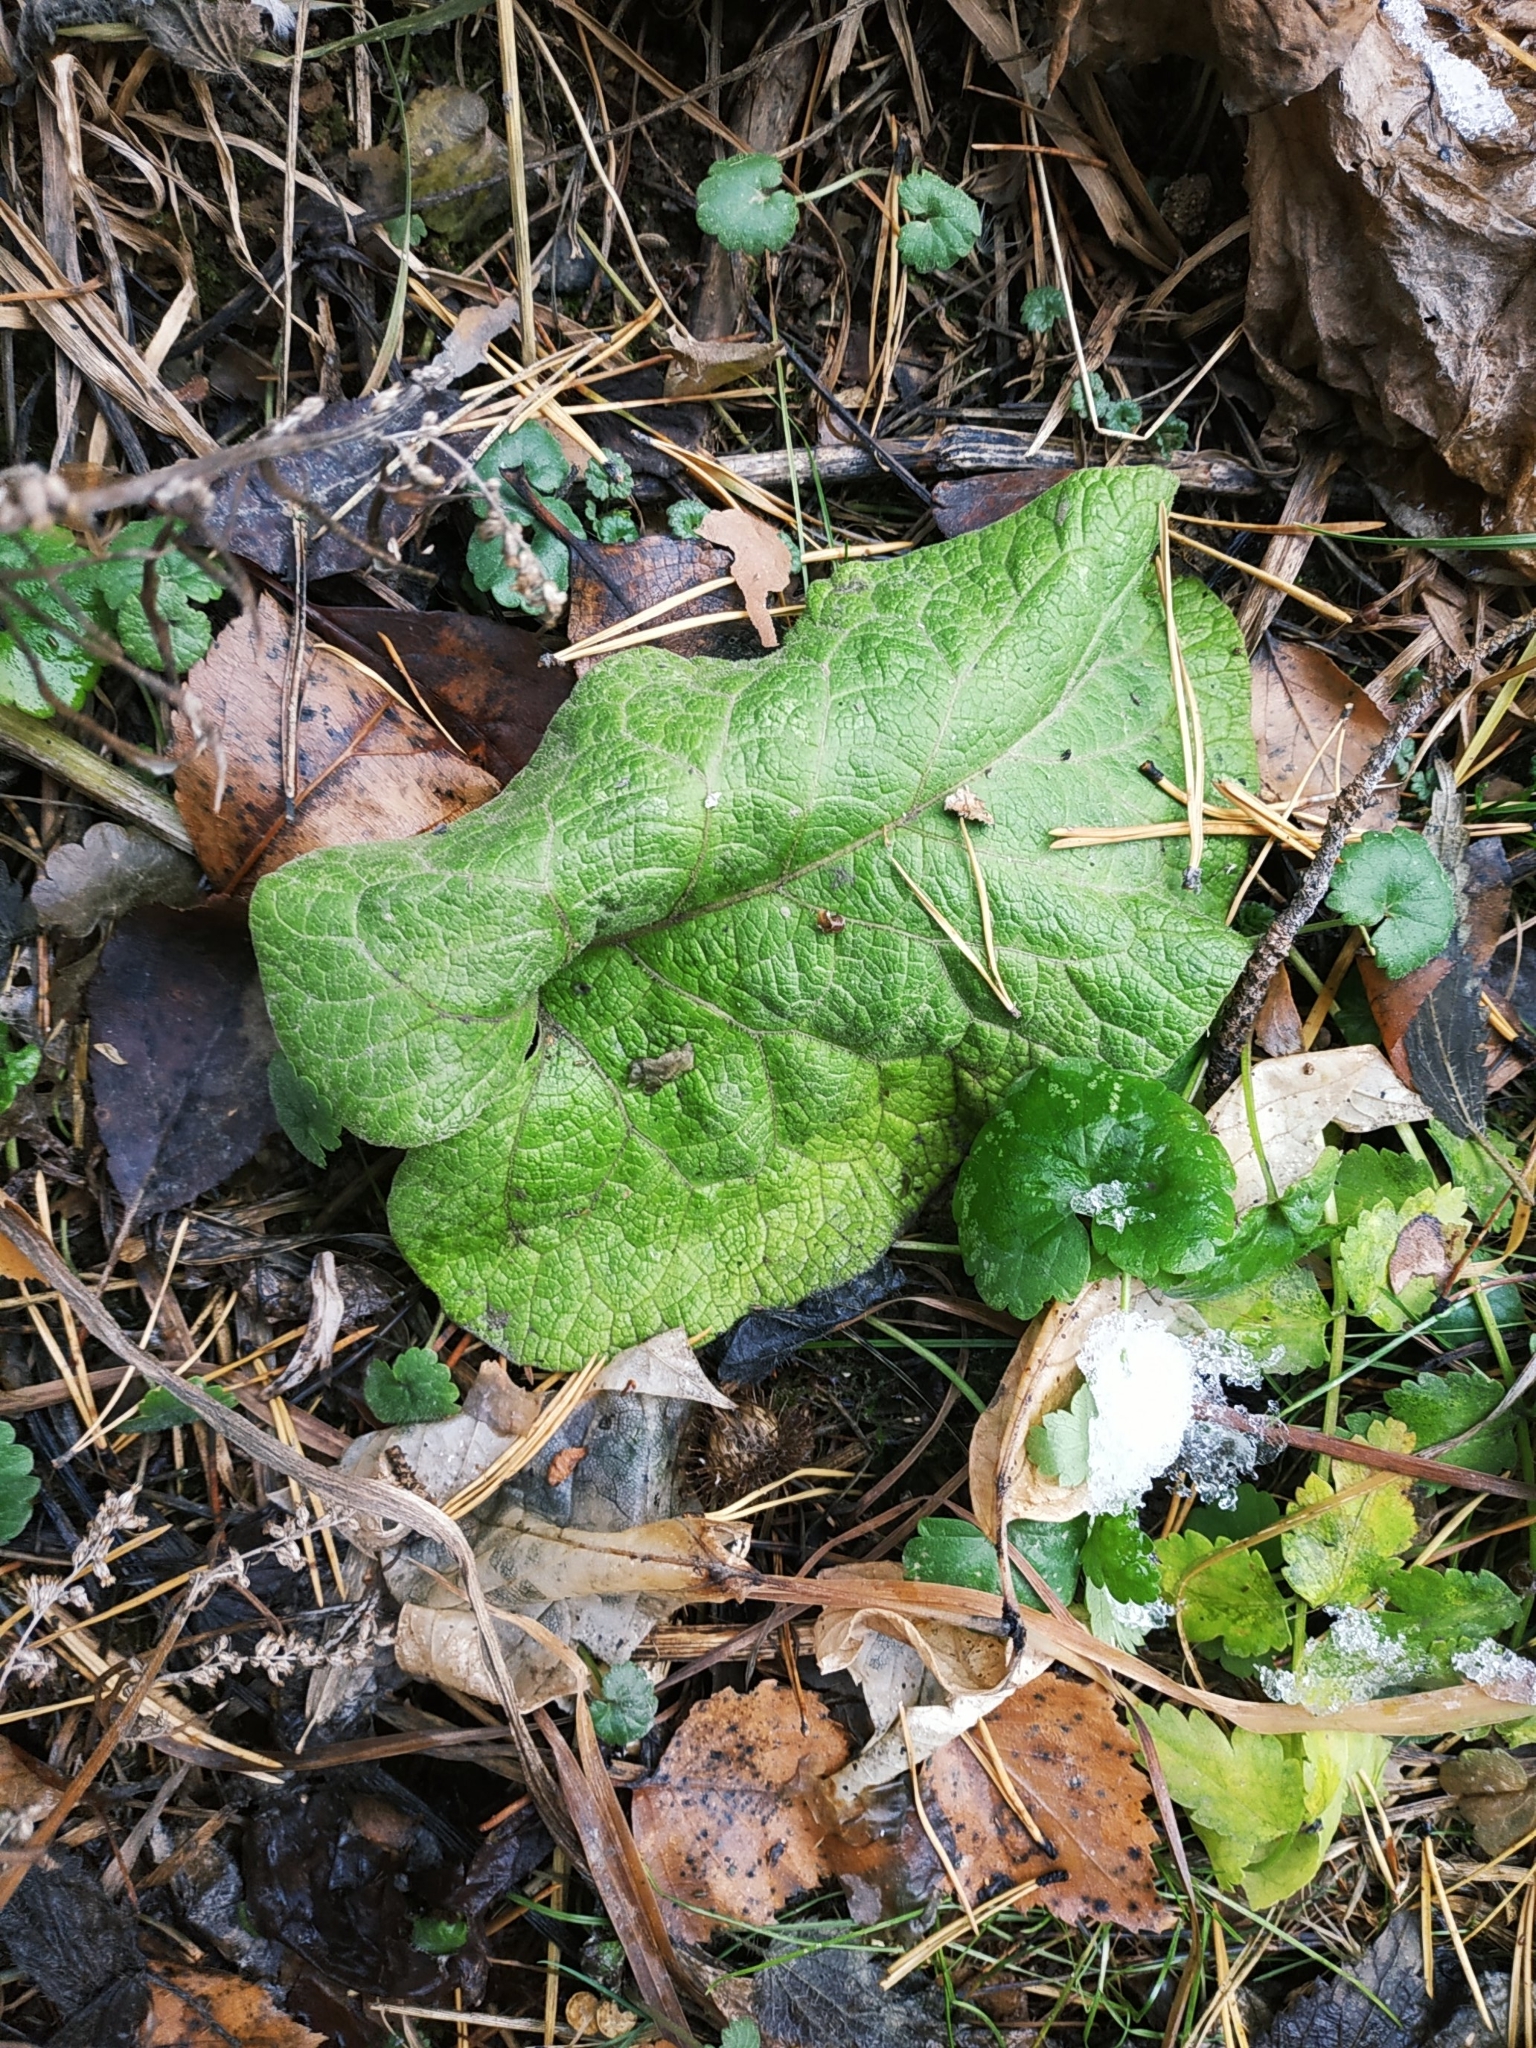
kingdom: Plantae
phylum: Tracheophyta
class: Magnoliopsida
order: Asterales
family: Asteraceae
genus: Arctium
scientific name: Arctium tomentosum
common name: Woolly burdock
